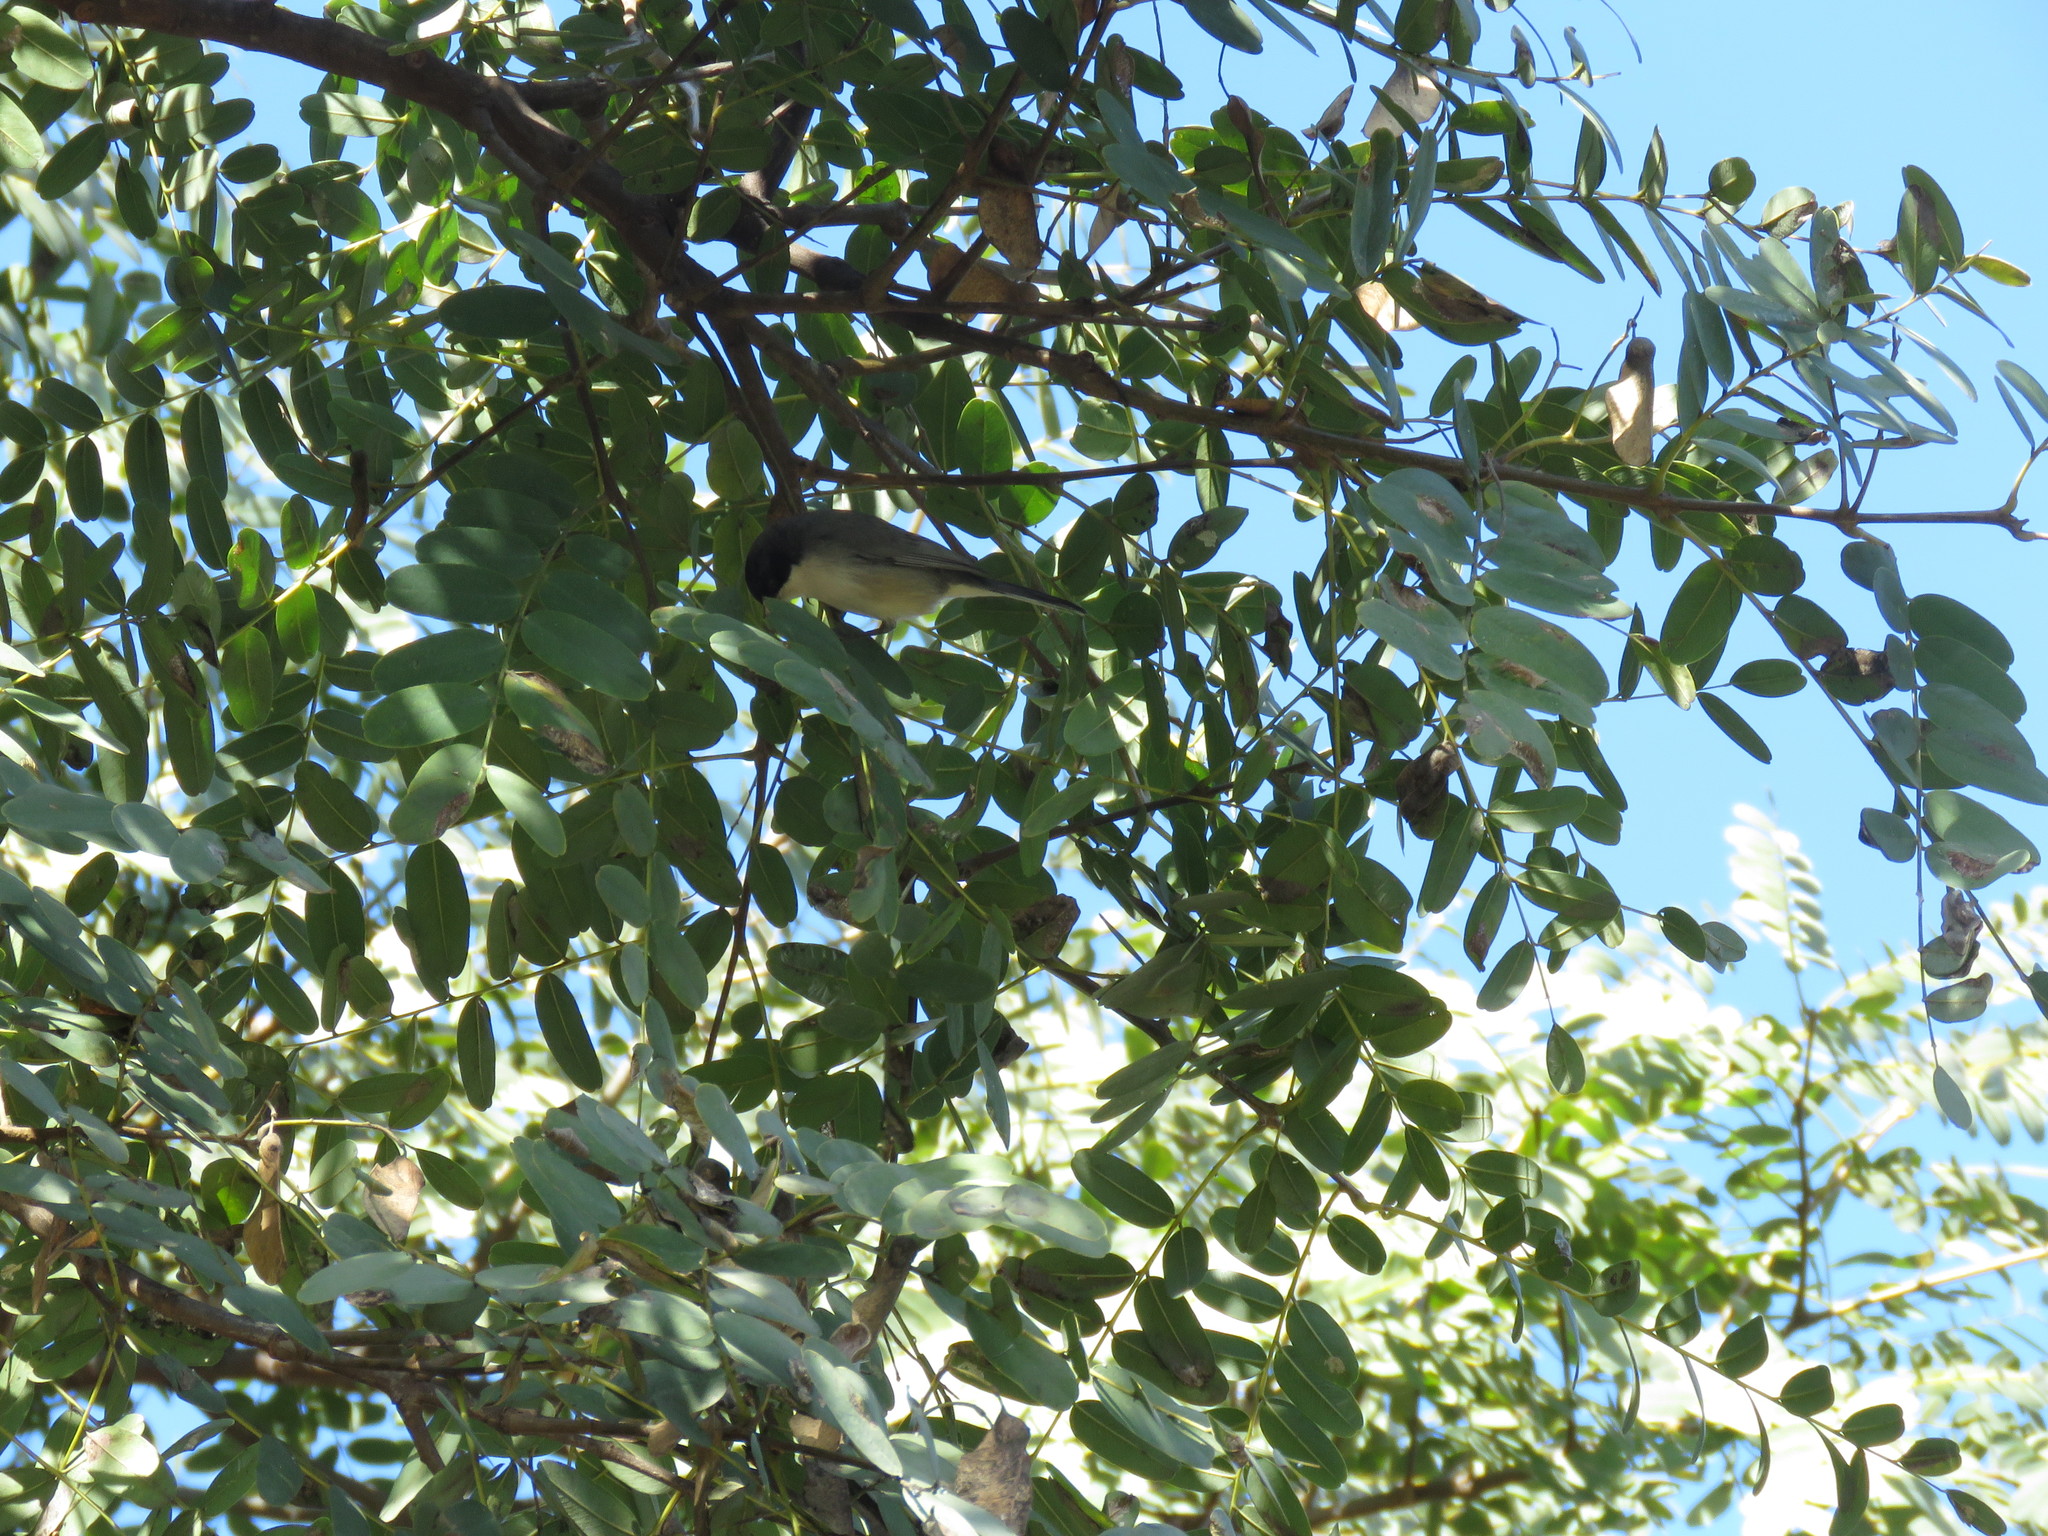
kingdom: Animalia
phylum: Chordata
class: Aves
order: Passeriformes
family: Thraupidae
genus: Microspingus
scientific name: Microspingus melanoleucus
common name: Black-capped warbling-finch
